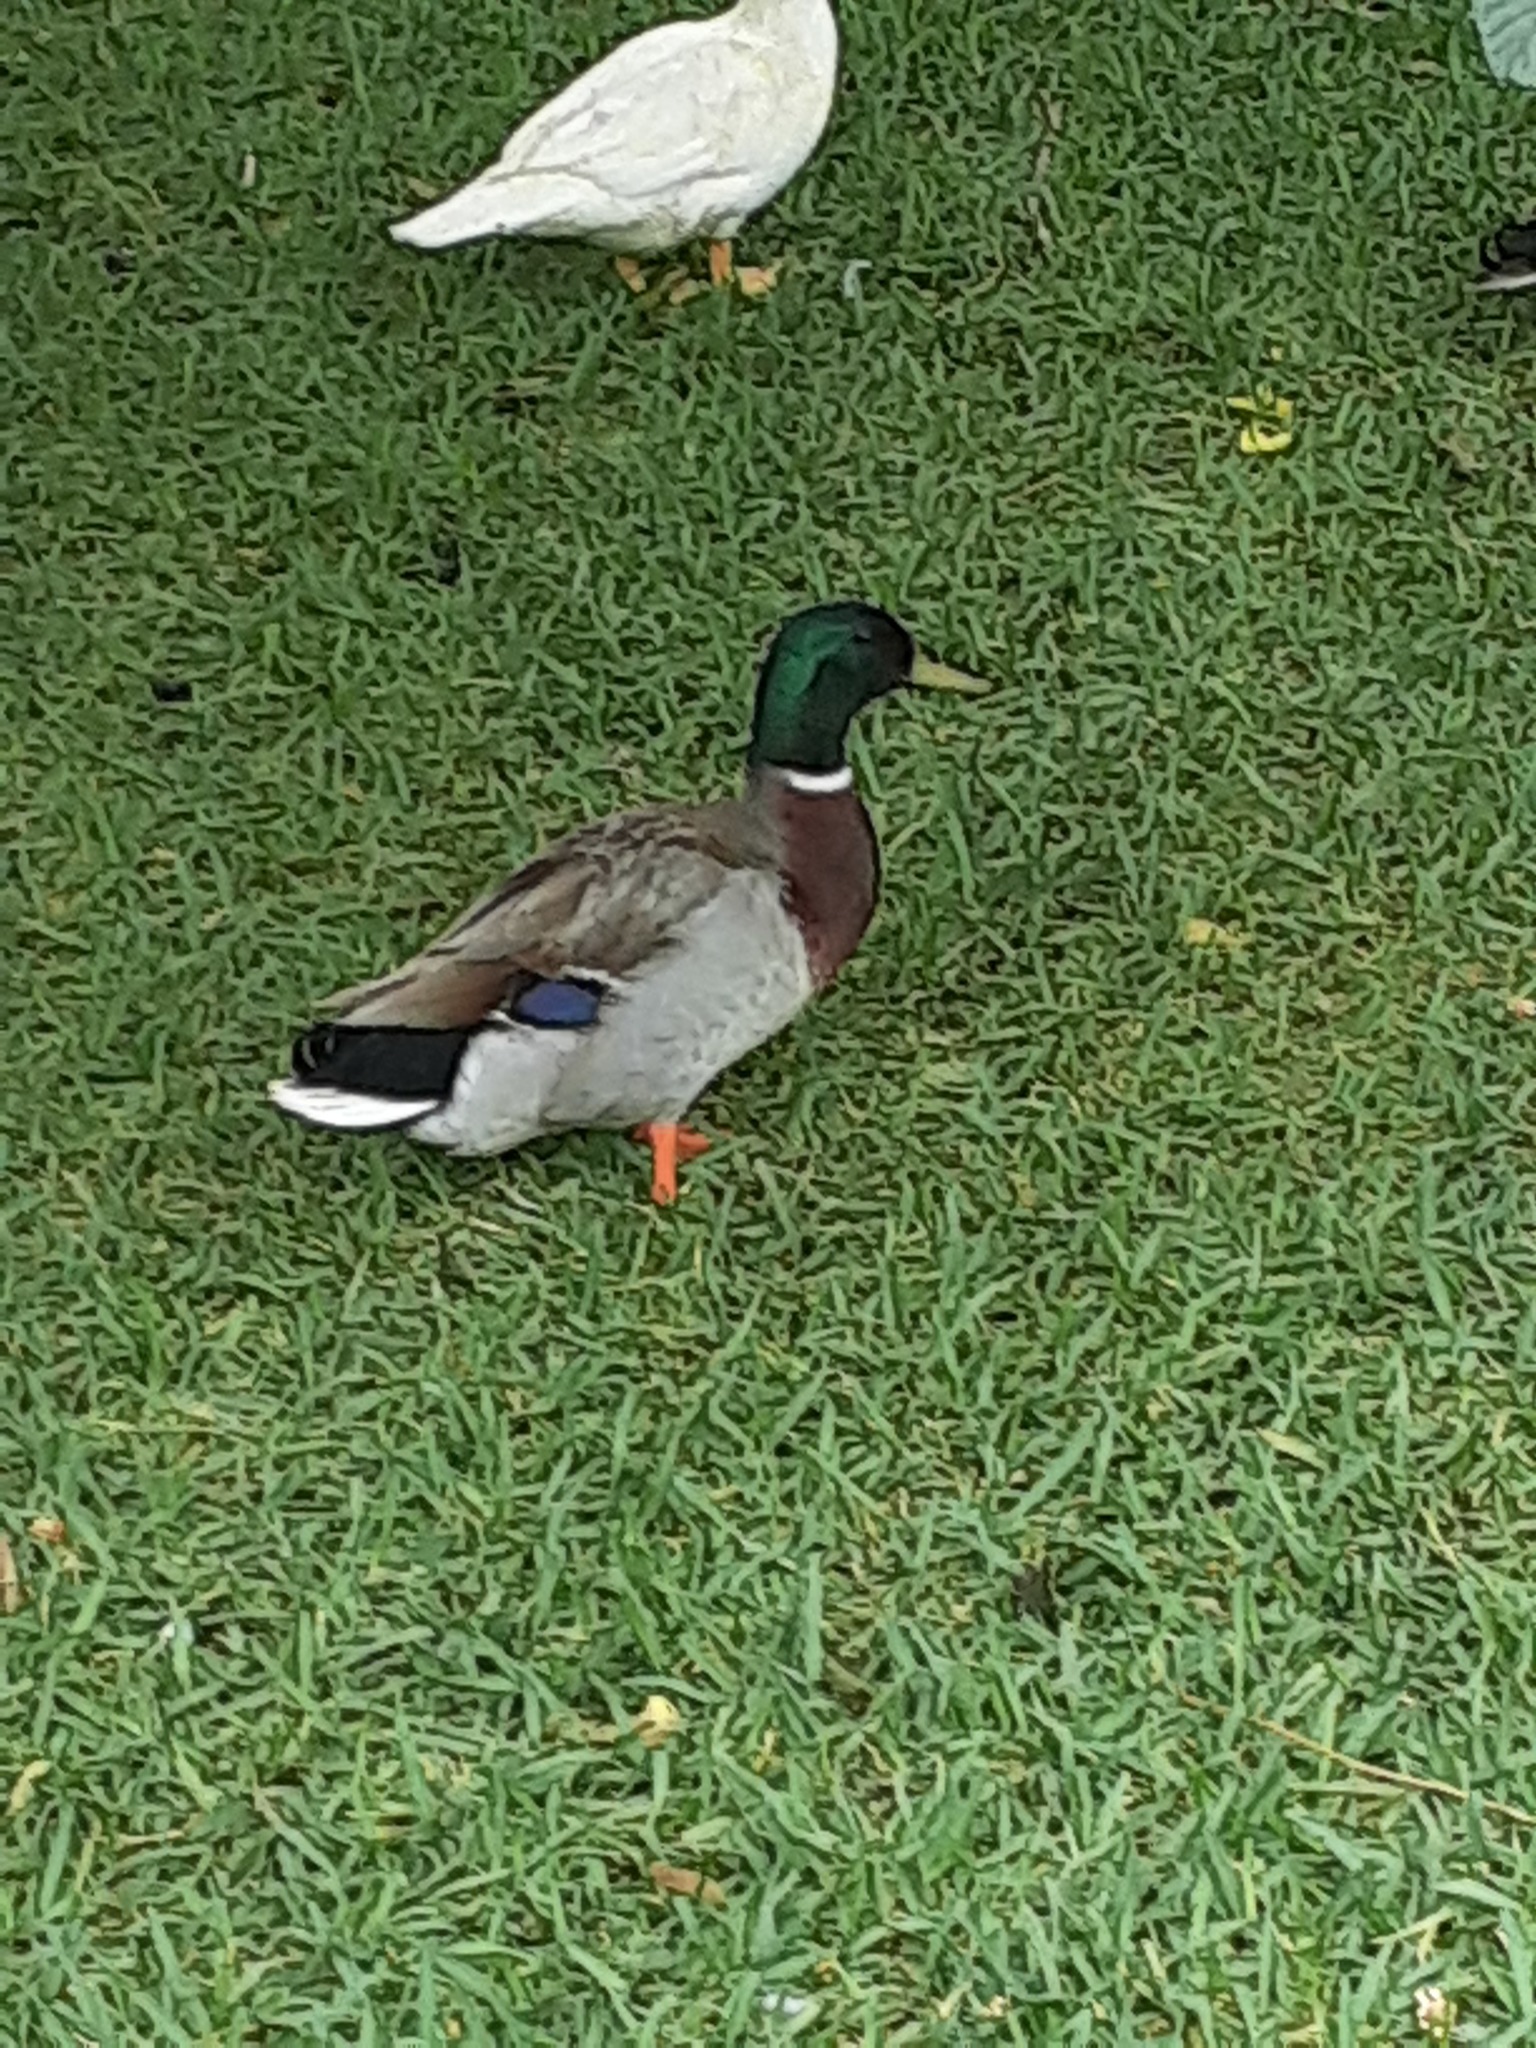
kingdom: Animalia
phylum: Chordata
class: Aves
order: Anseriformes
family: Anatidae
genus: Anas
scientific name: Anas platyrhynchos
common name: Mallard
